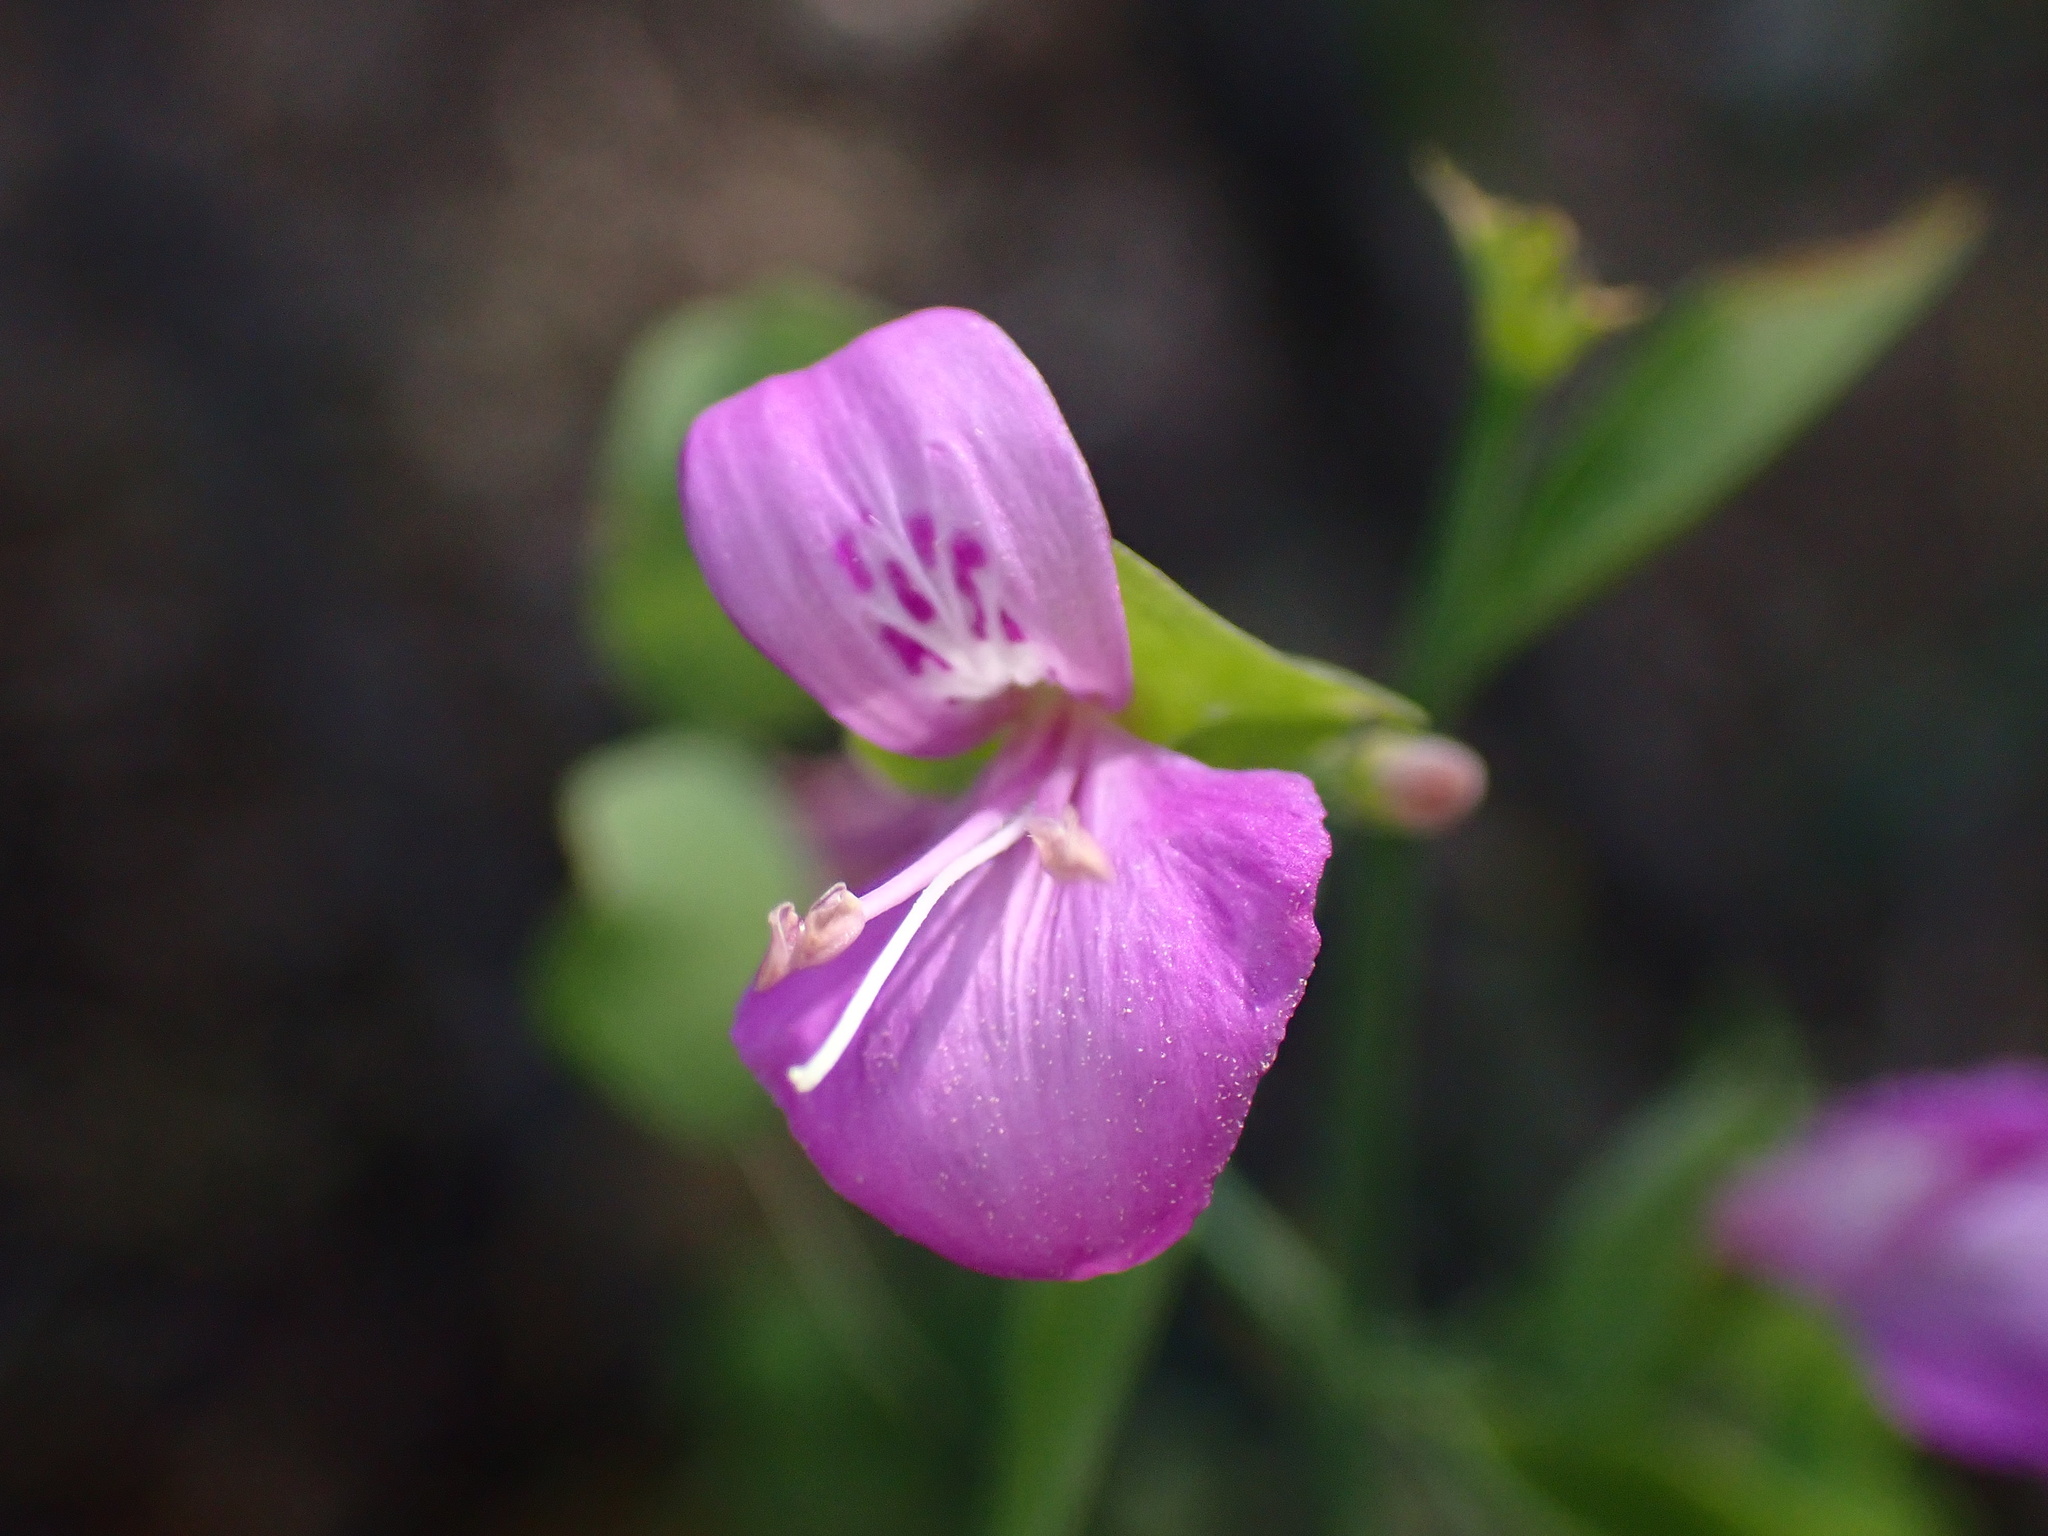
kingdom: Plantae
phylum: Tracheophyta
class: Magnoliopsida
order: Lamiales
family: Acanthaceae
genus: Dicliptera
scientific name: Dicliptera resupinata
